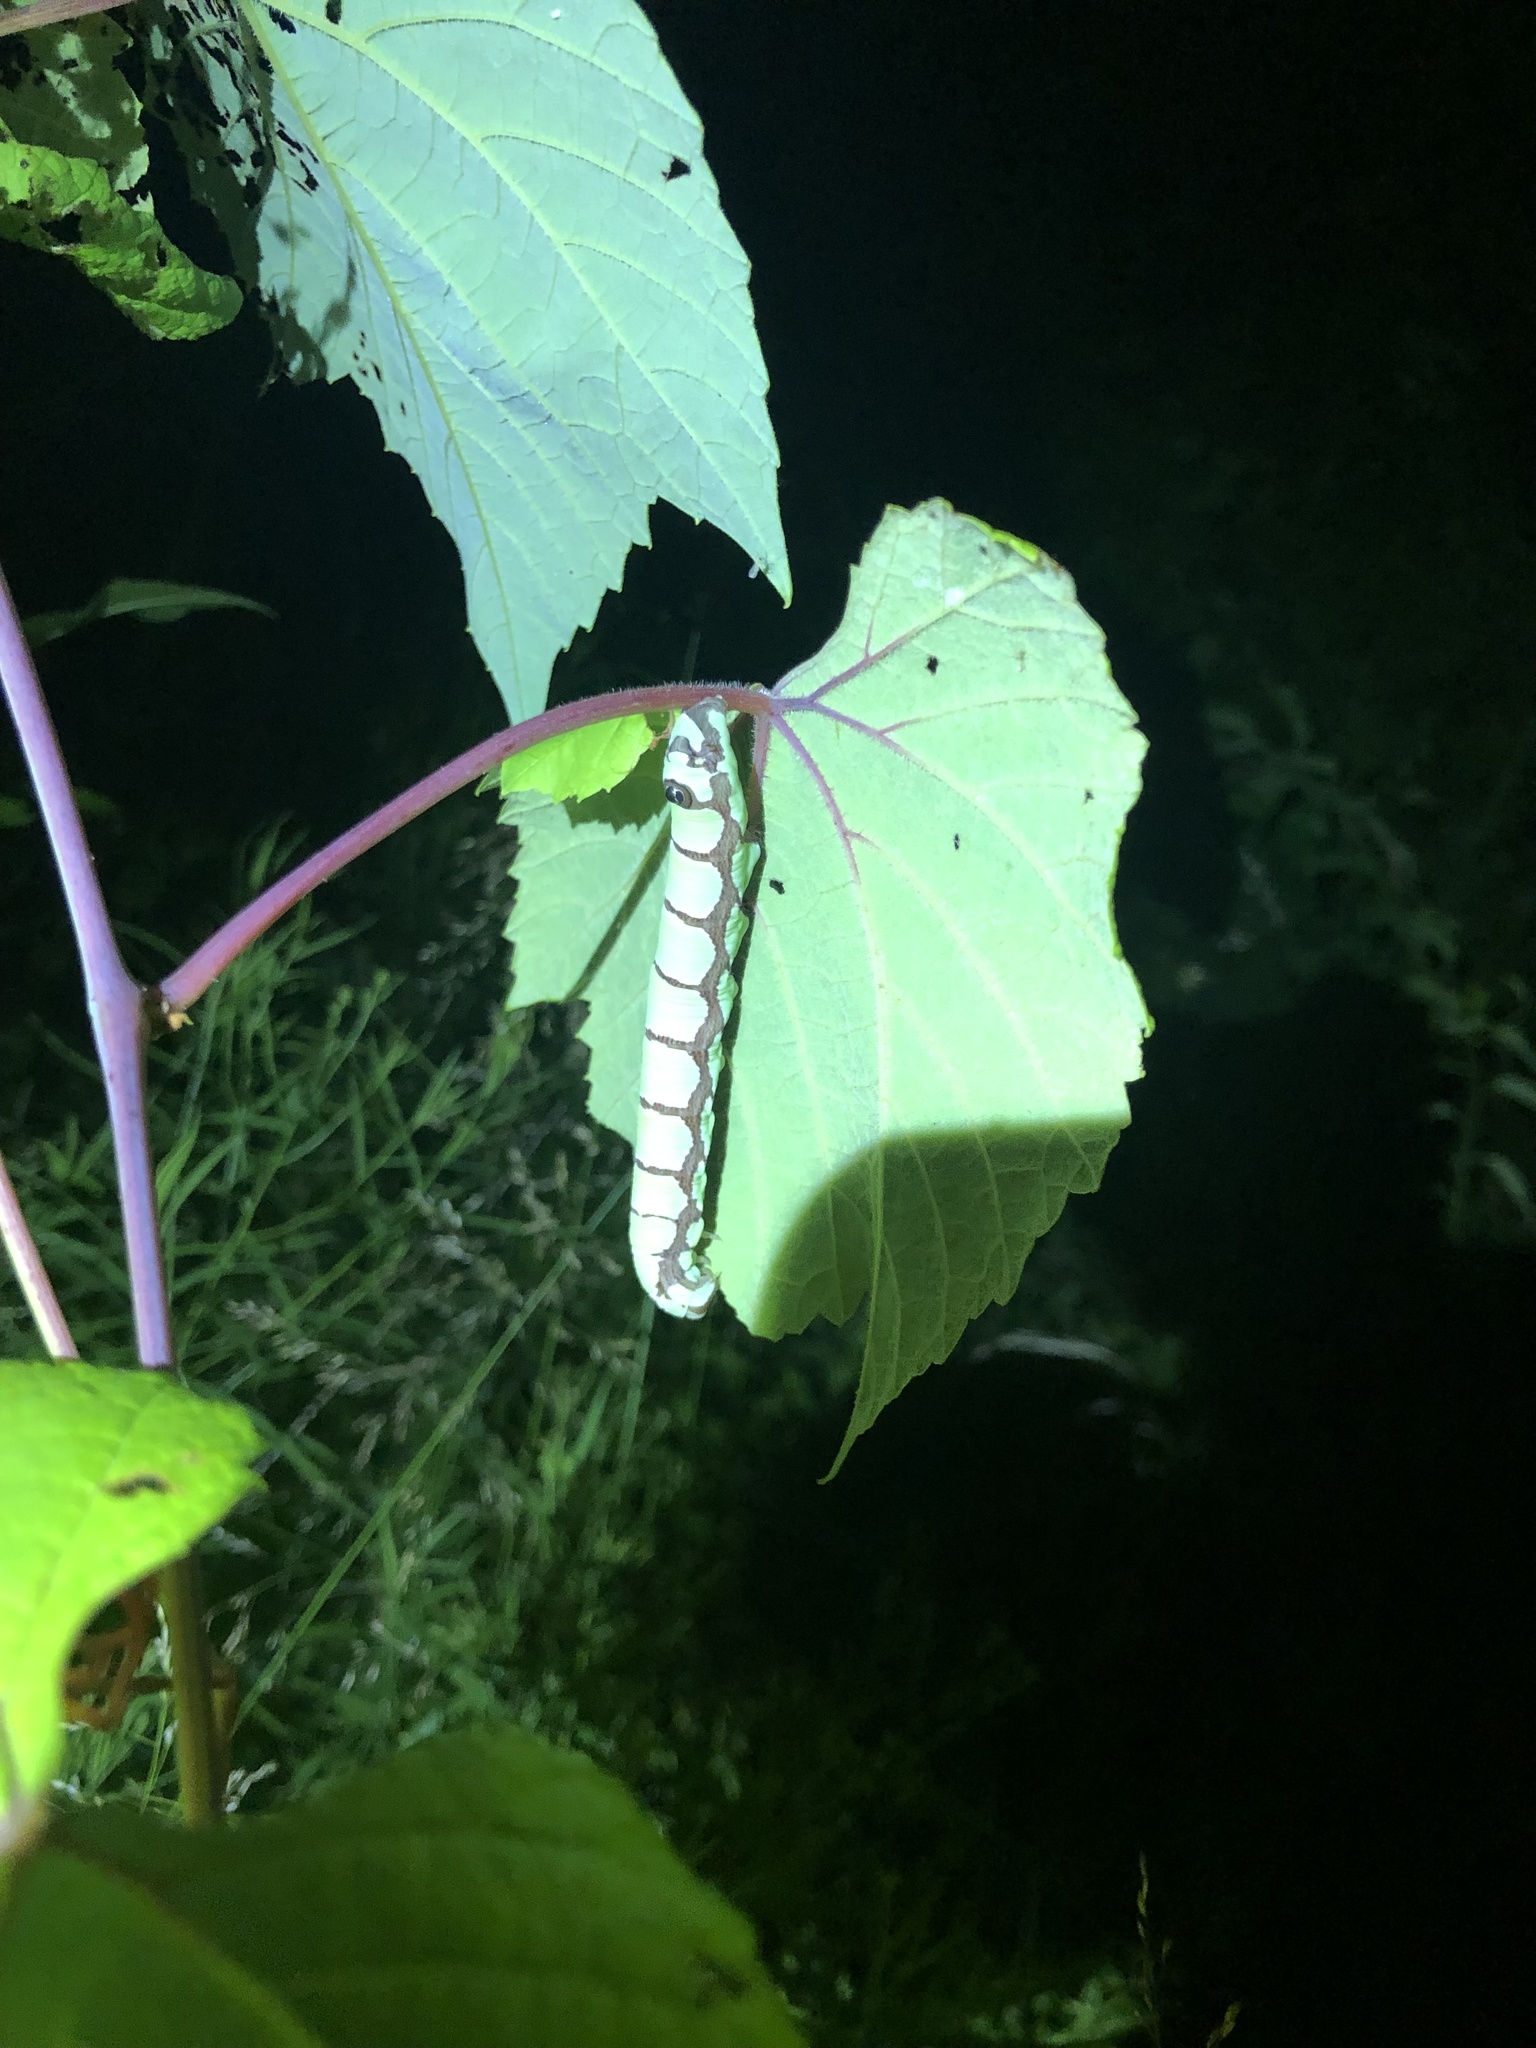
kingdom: Animalia
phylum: Arthropoda
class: Insecta
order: Lepidoptera
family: Sphingidae
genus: Sphecodina
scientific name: Sphecodina abbottii
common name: Abbott's sphinx
